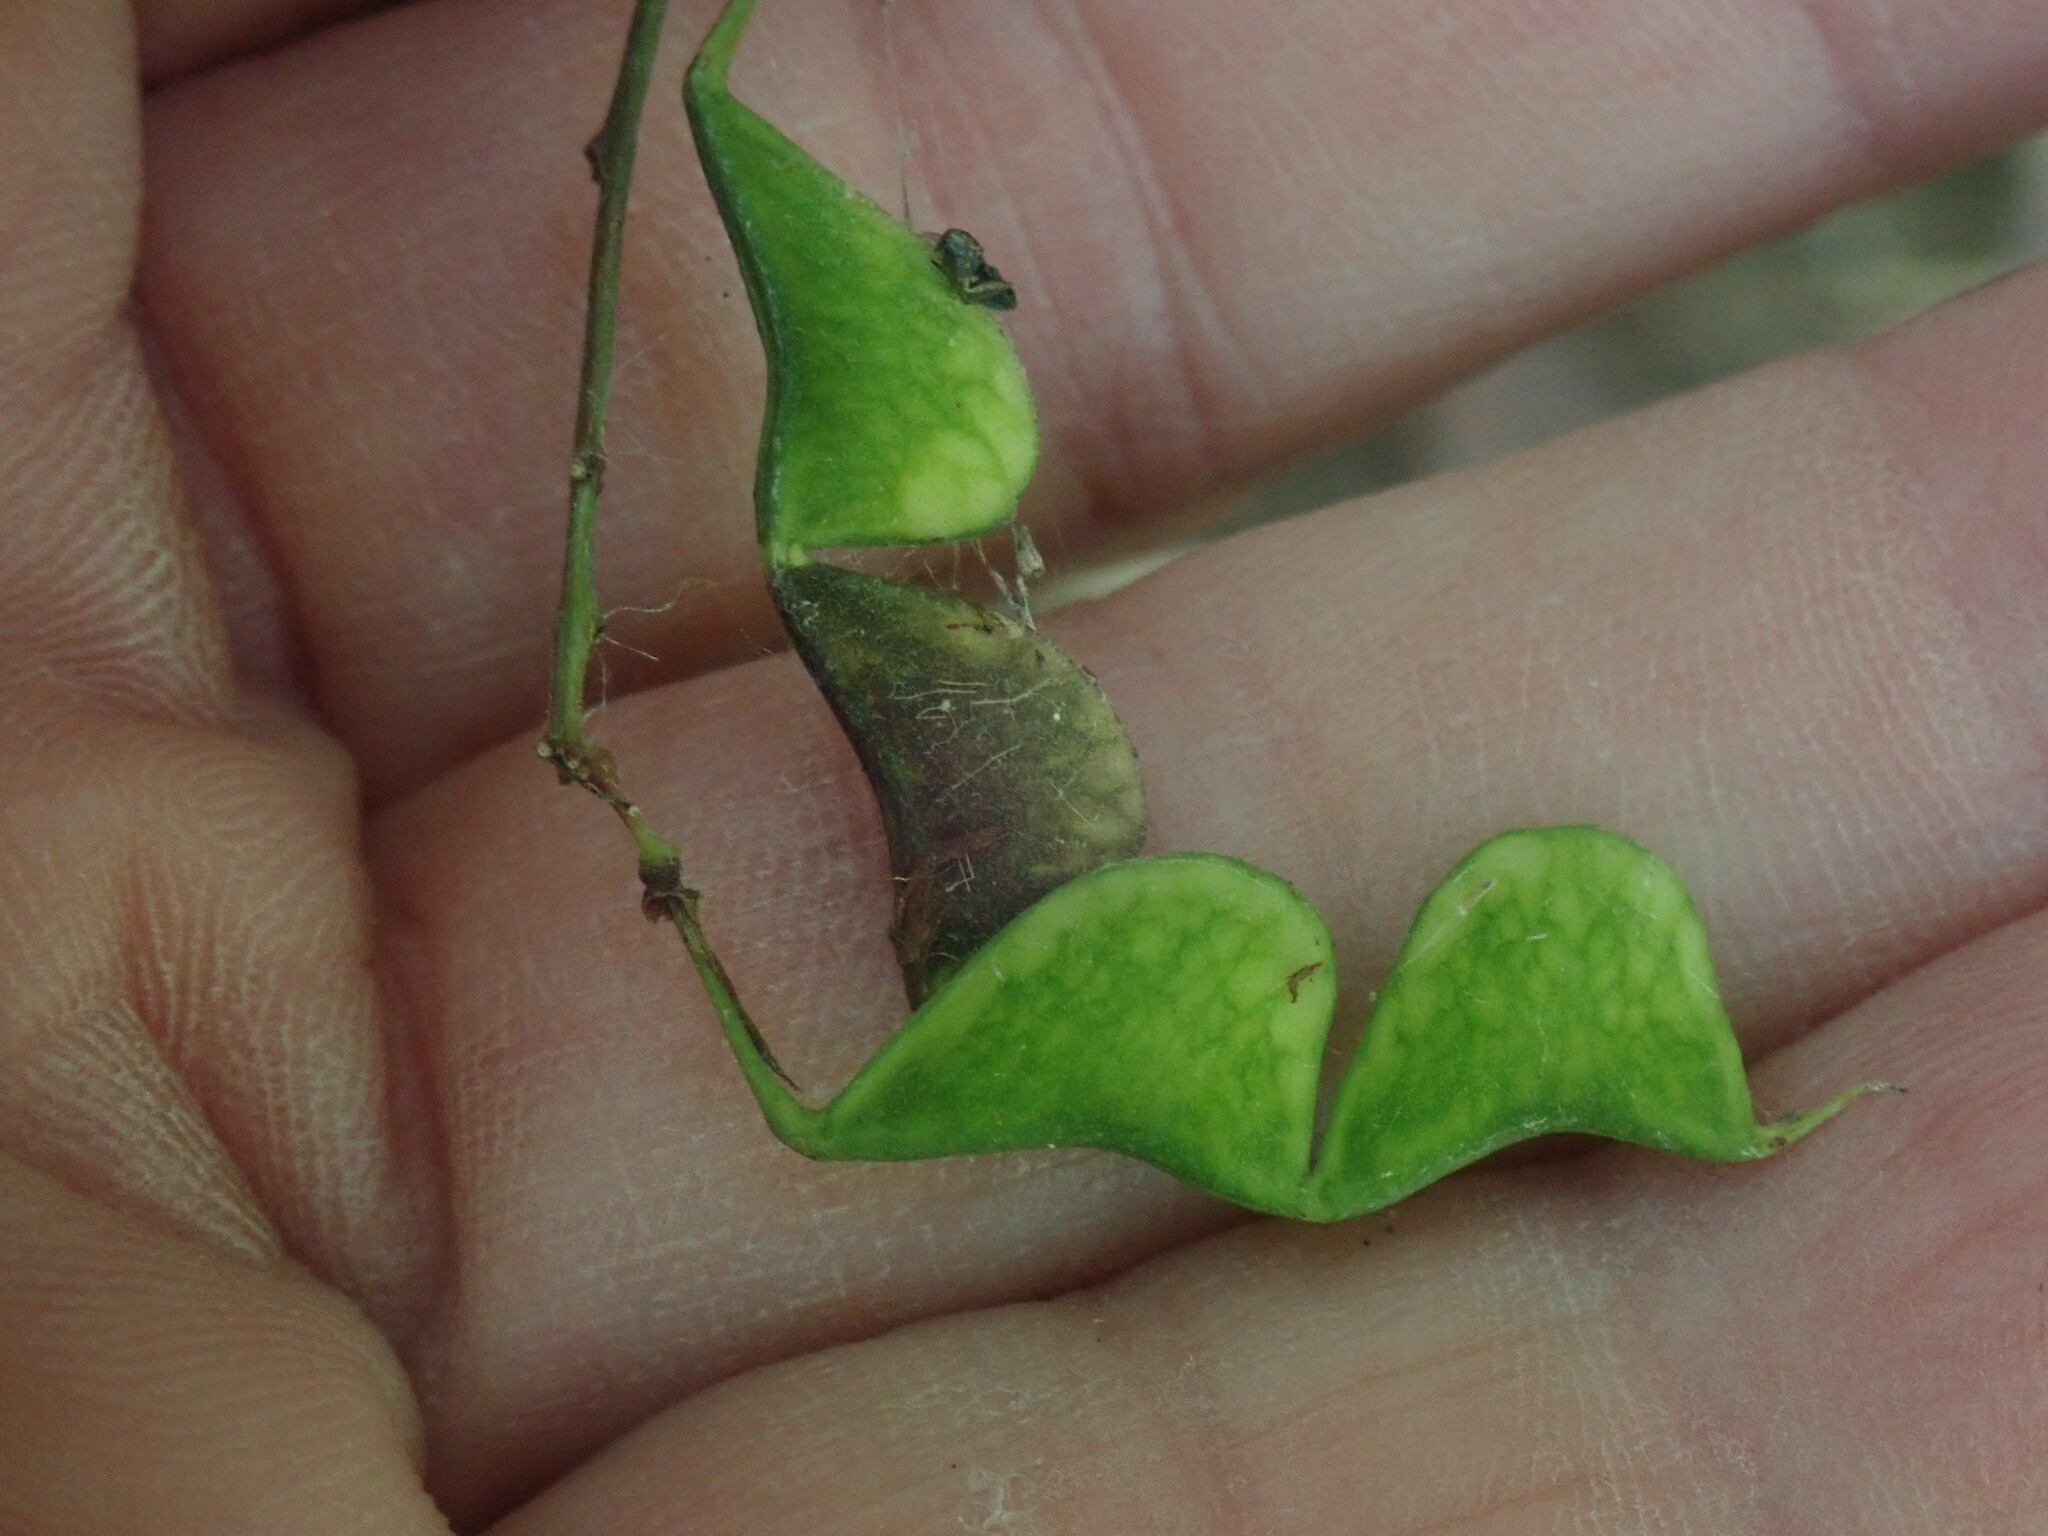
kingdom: Plantae
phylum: Tracheophyta
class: Magnoliopsida
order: Fabales
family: Fabaceae
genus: Hylodesmum
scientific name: Hylodesmum glutinosum
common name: Clustered-leaved tick-trefoil
